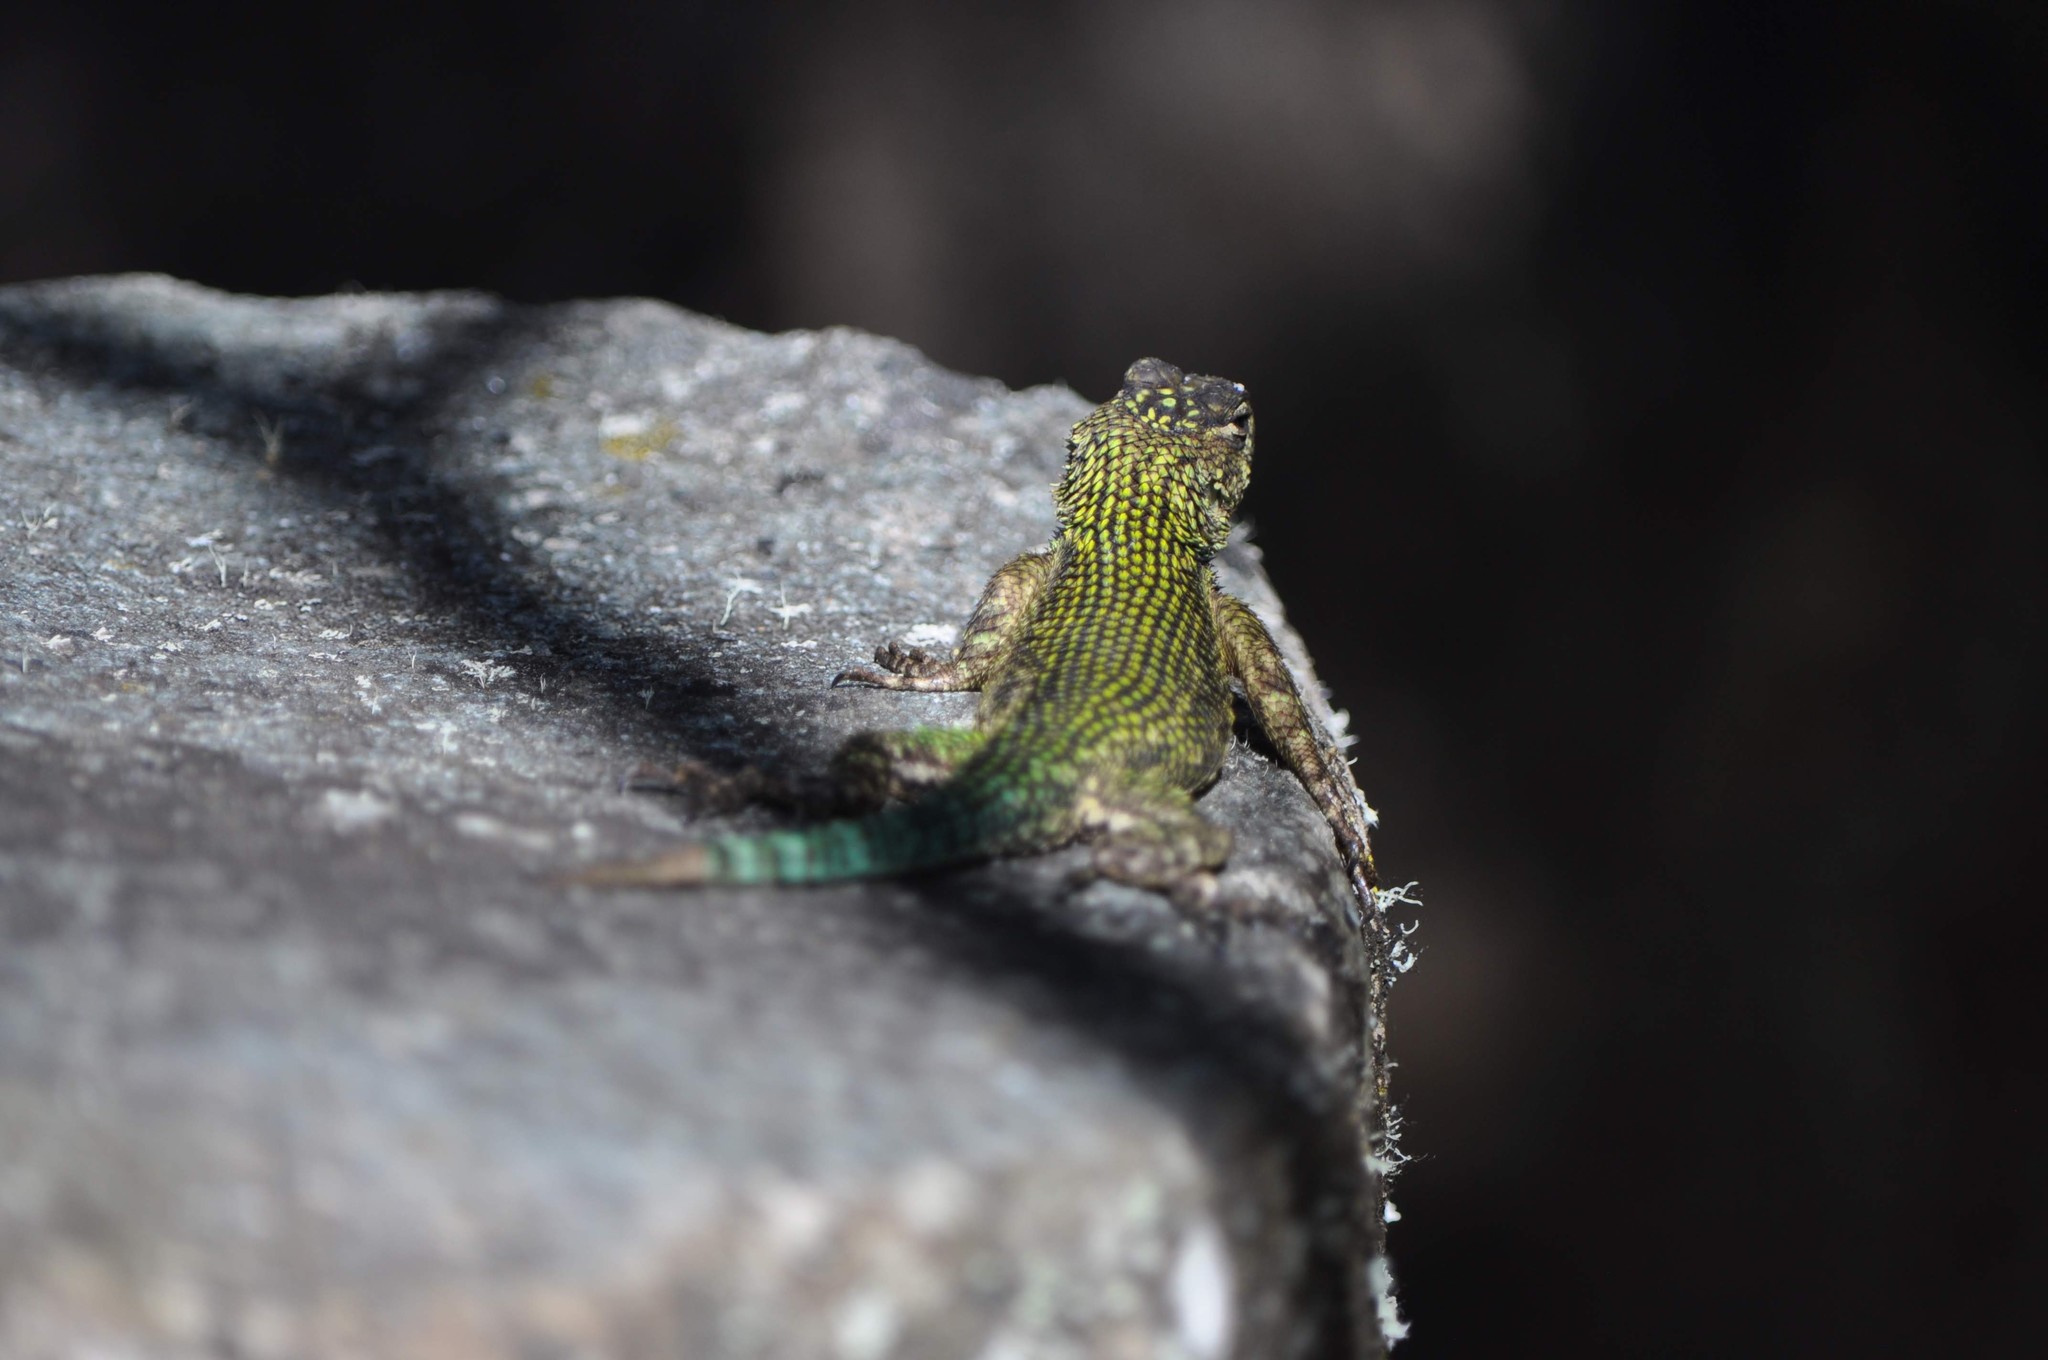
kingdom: Animalia
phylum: Chordata
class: Squamata
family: Phrynosomatidae
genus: Sceloporus
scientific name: Sceloporus malachiticus
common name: Green spiny lizard
